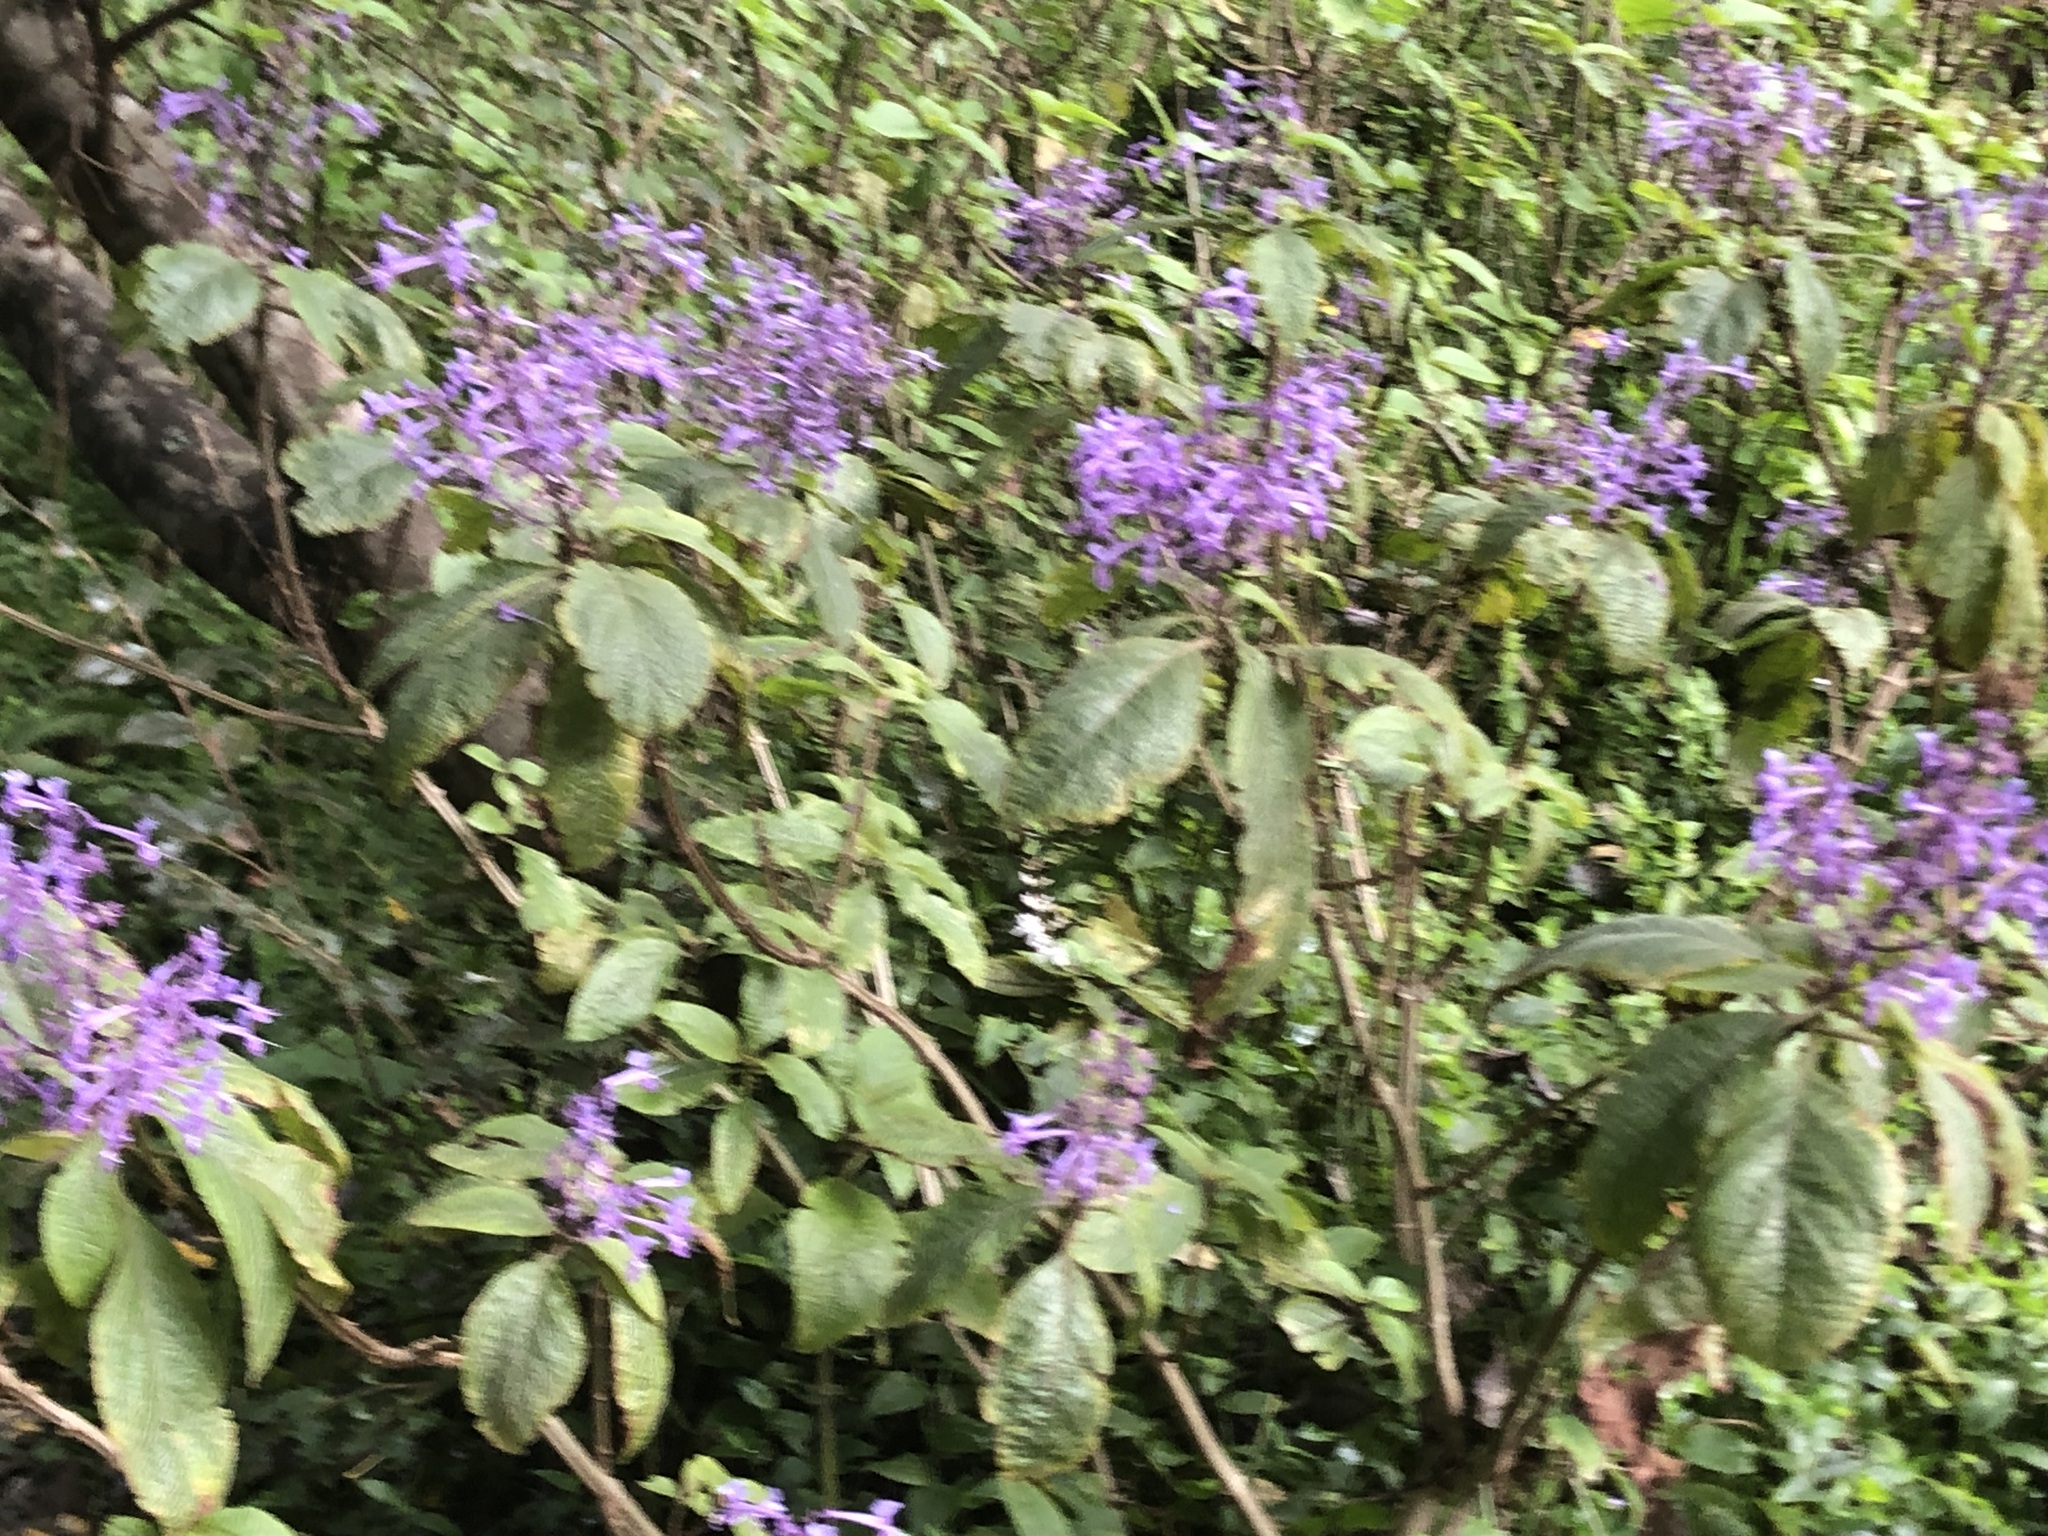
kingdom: Plantae
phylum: Tracheophyta
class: Magnoliopsida
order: Lamiales
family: Lamiaceae
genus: Plectranthus
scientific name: Plectranthus ecklonii
